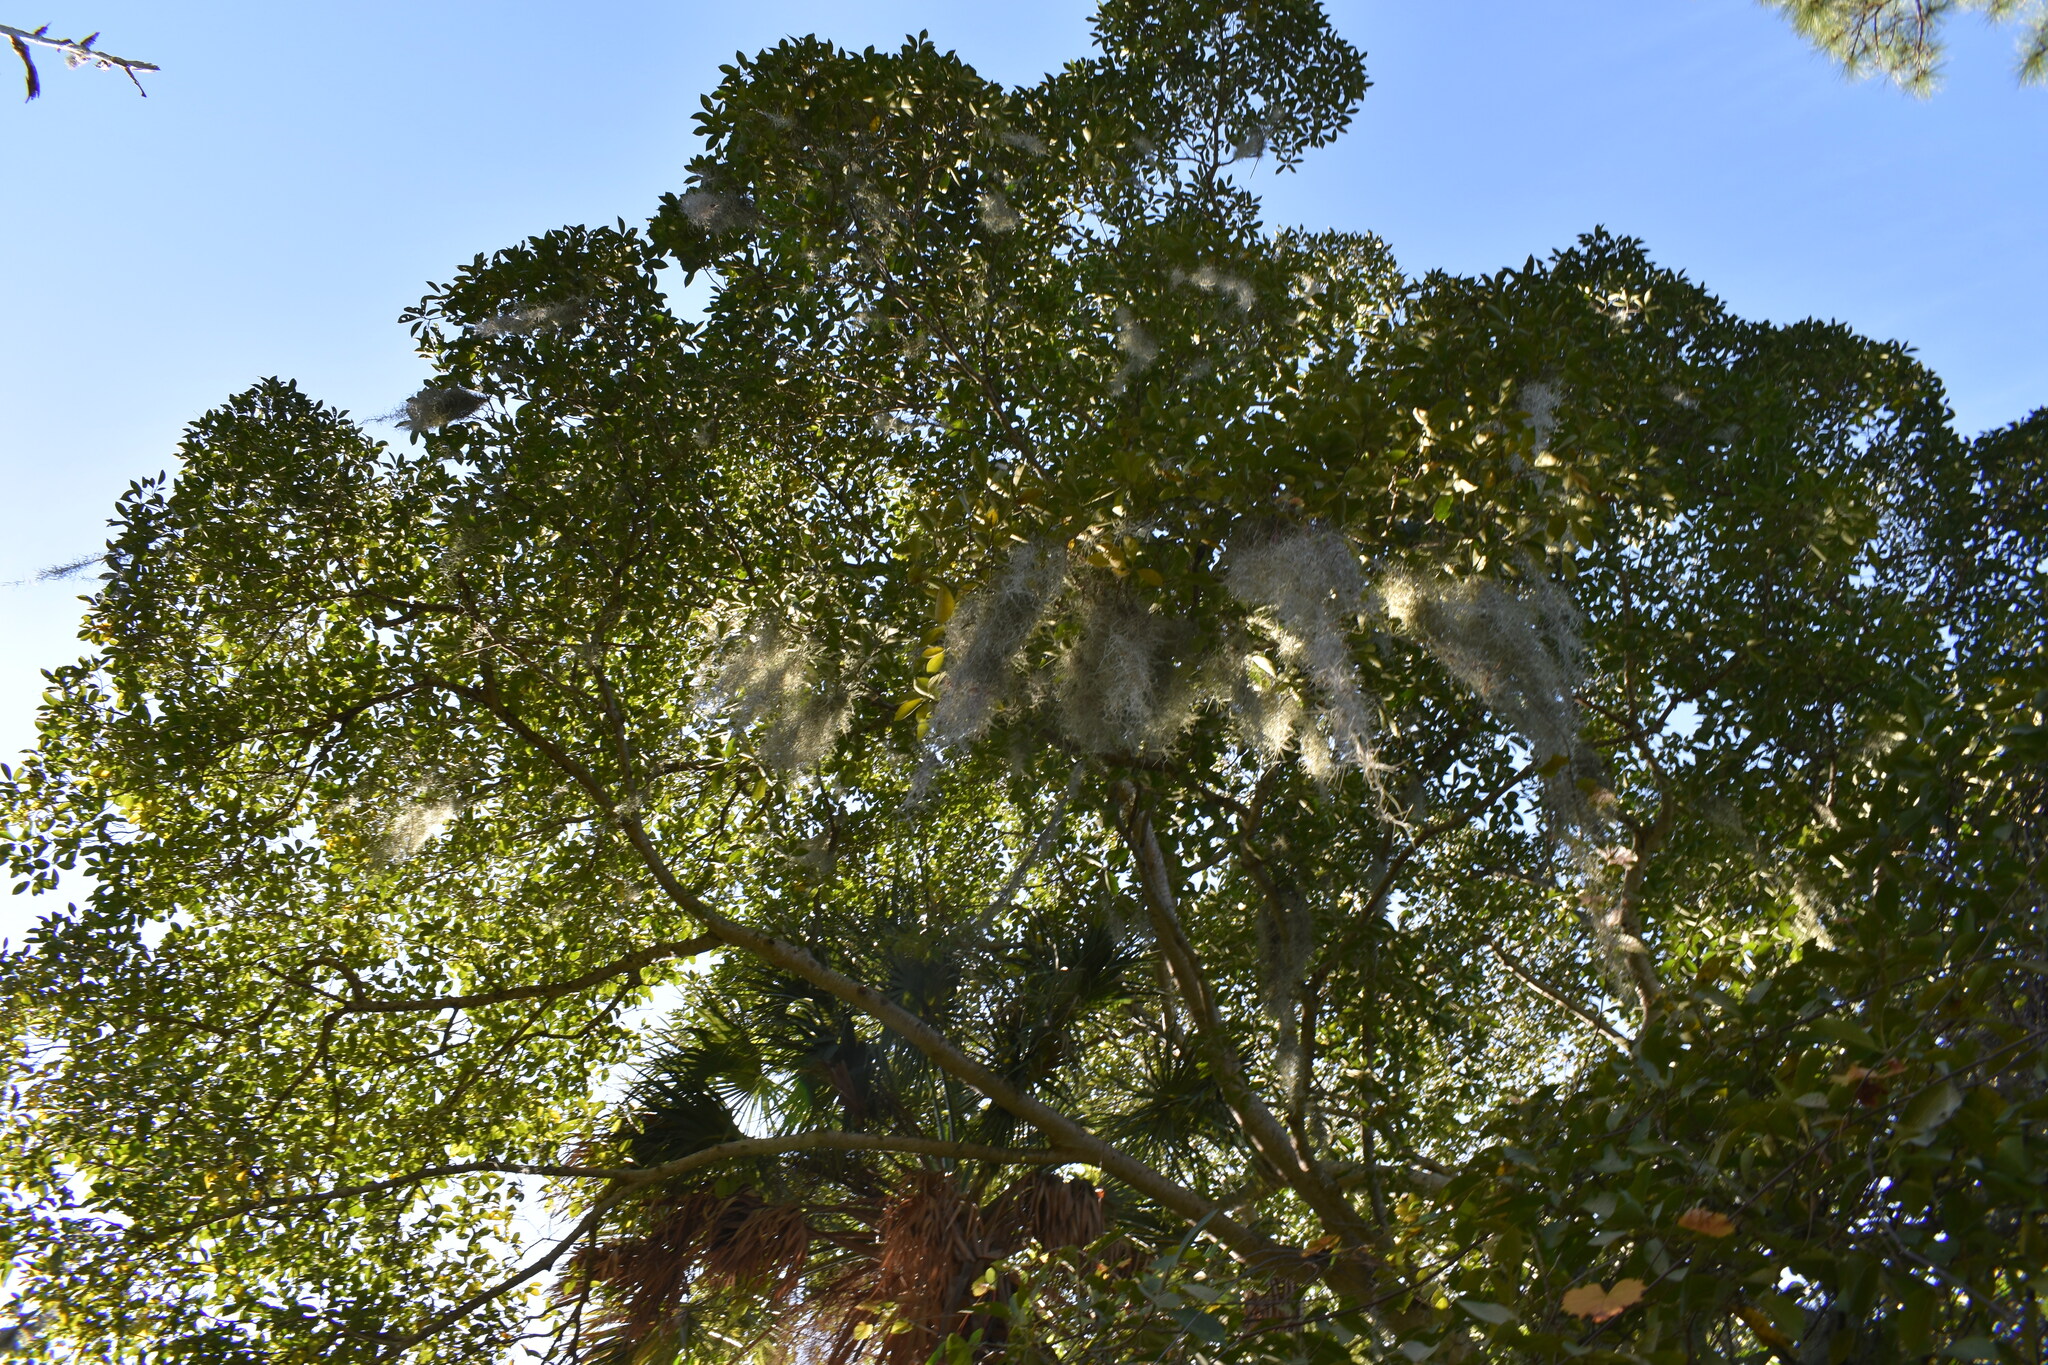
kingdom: Plantae
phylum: Tracheophyta
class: Liliopsida
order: Poales
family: Bromeliaceae
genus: Tillandsia
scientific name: Tillandsia usneoides
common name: Spanish moss
